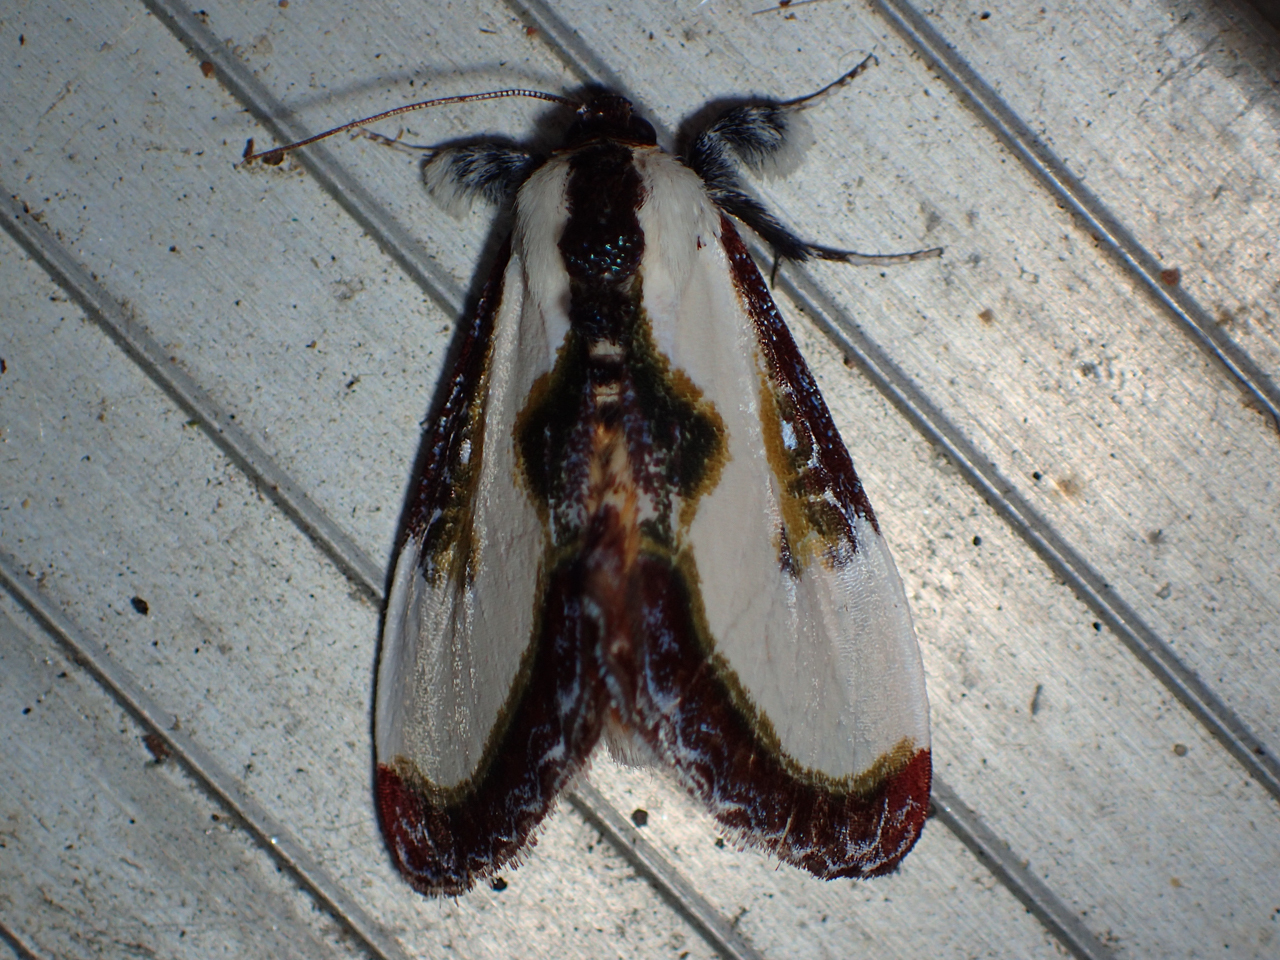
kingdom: Animalia
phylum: Arthropoda
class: Insecta
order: Lepidoptera
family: Noctuidae
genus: Eudryas
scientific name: Eudryas grata
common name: Beautiful wood-nymph
